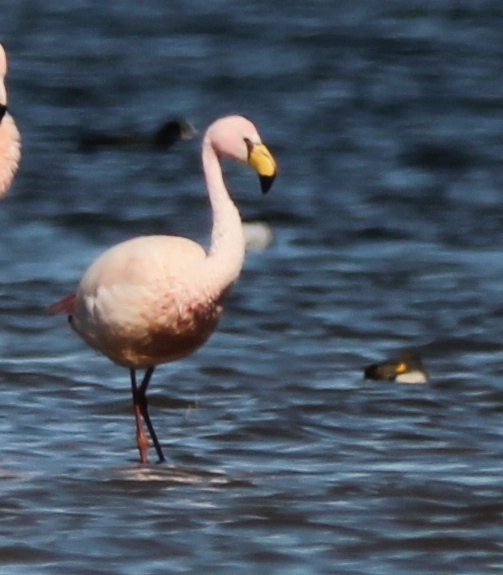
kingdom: Animalia
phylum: Chordata
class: Aves
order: Phoenicopteriformes
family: Phoenicopteridae
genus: Phoenicoparrus
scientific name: Phoenicoparrus jamesi
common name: James's flamingo
